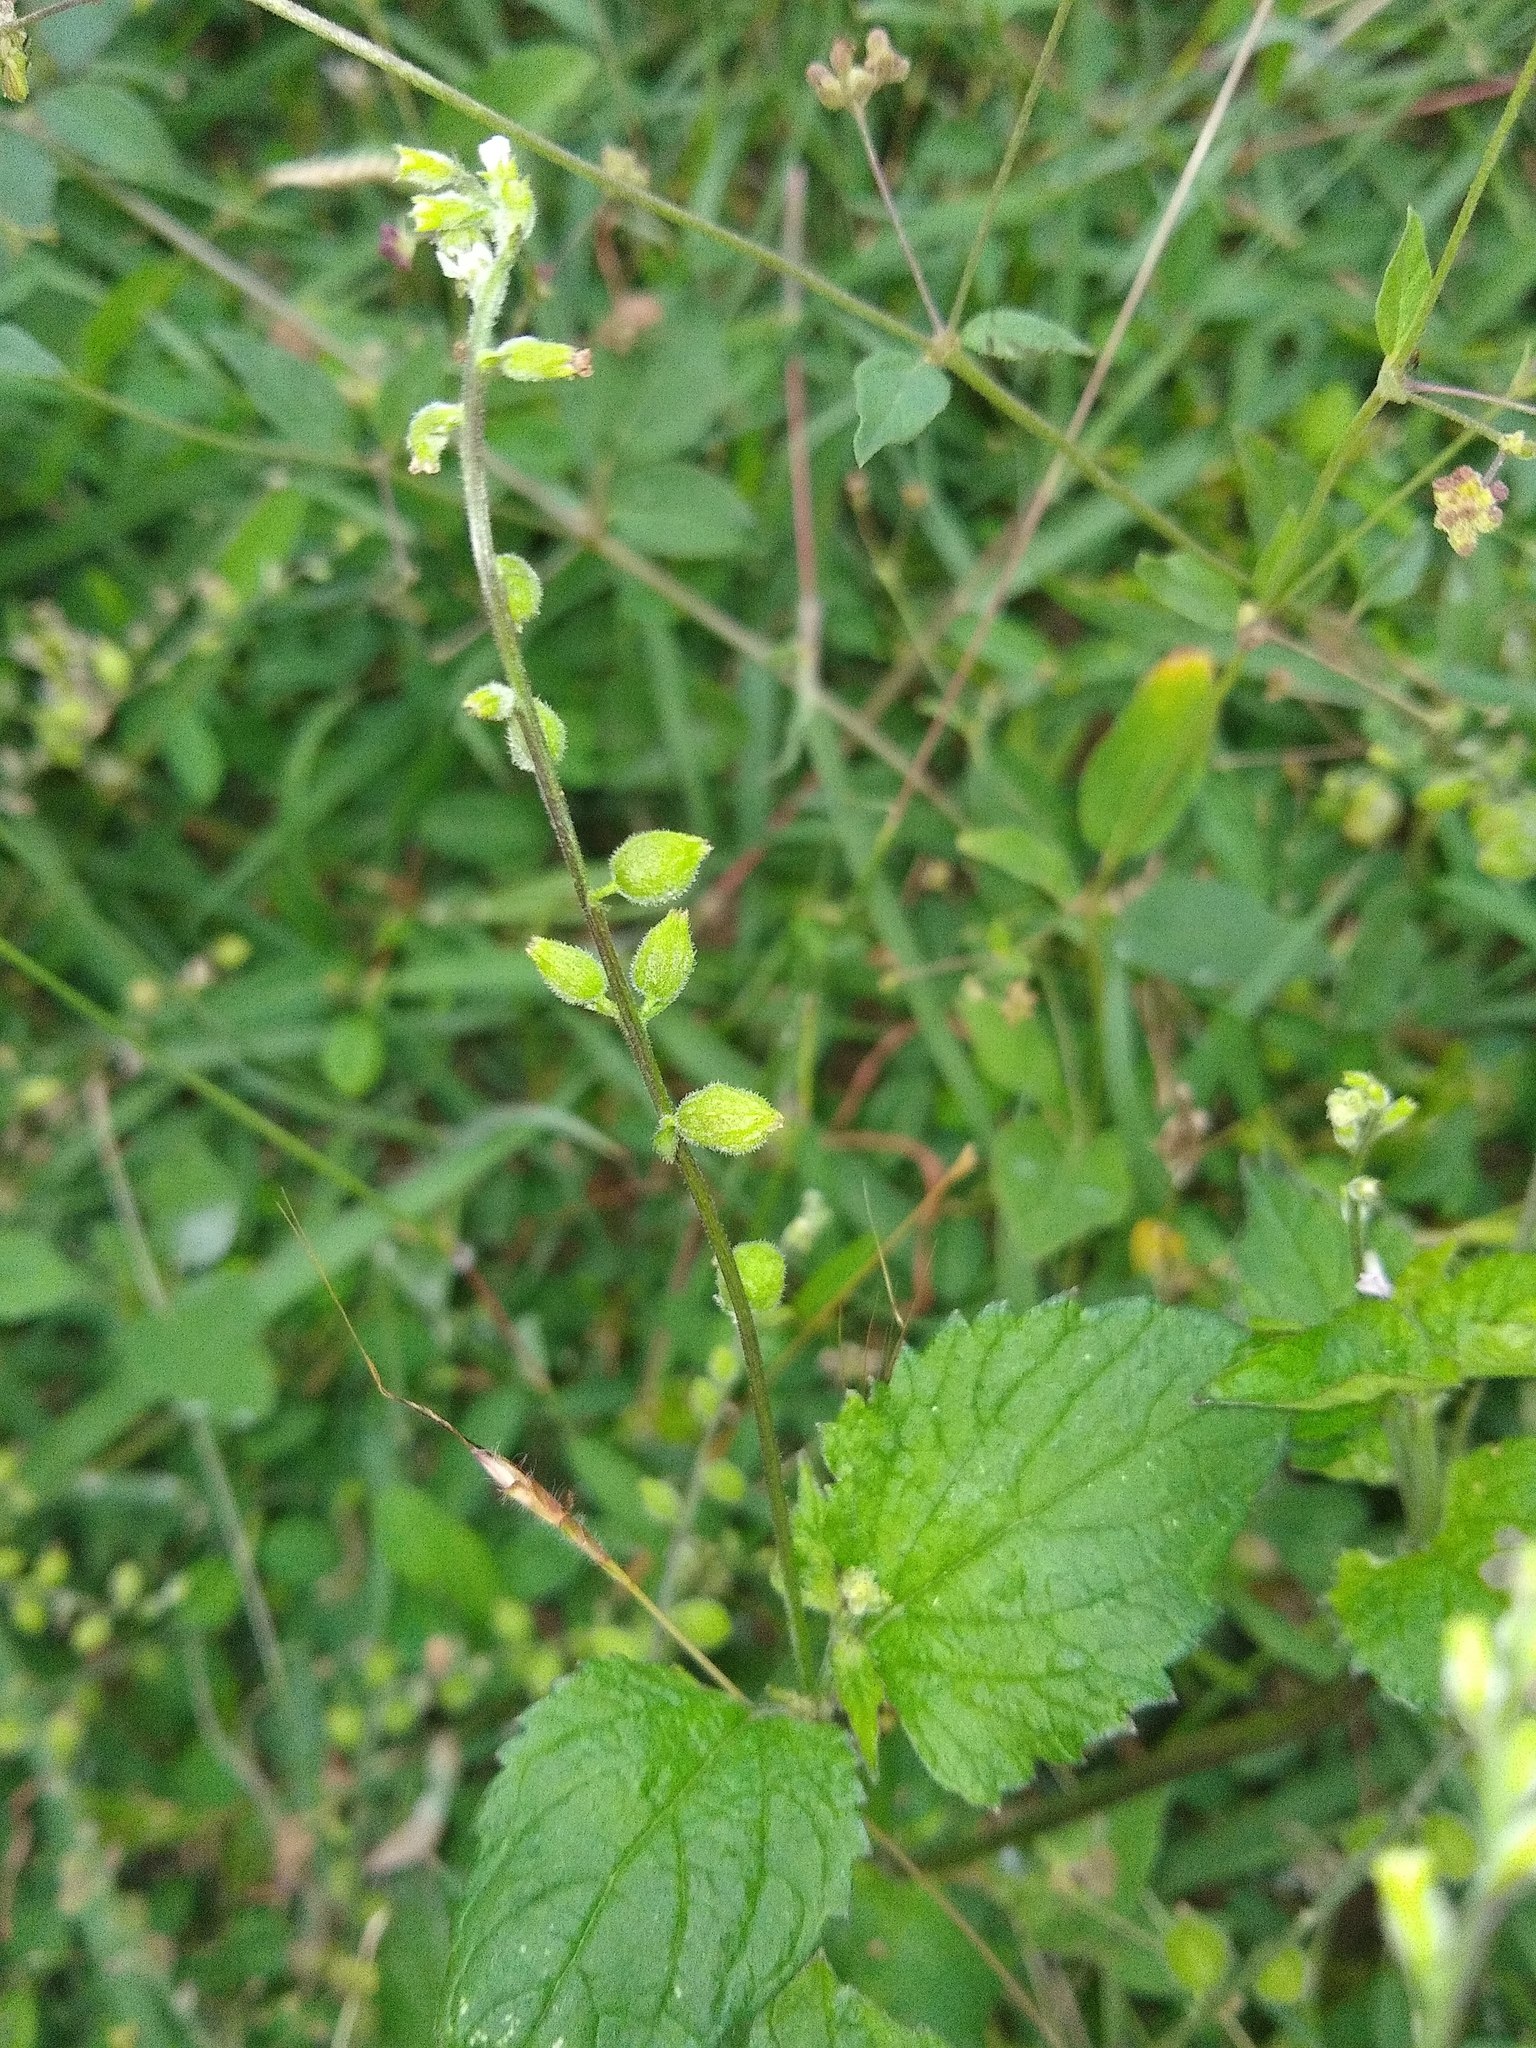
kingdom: Plantae
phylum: Tracheophyta
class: Magnoliopsida
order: Lamiales
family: Verbenaceae
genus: Priva
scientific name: Priva lappulacea
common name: Fasten-'pon-coat
